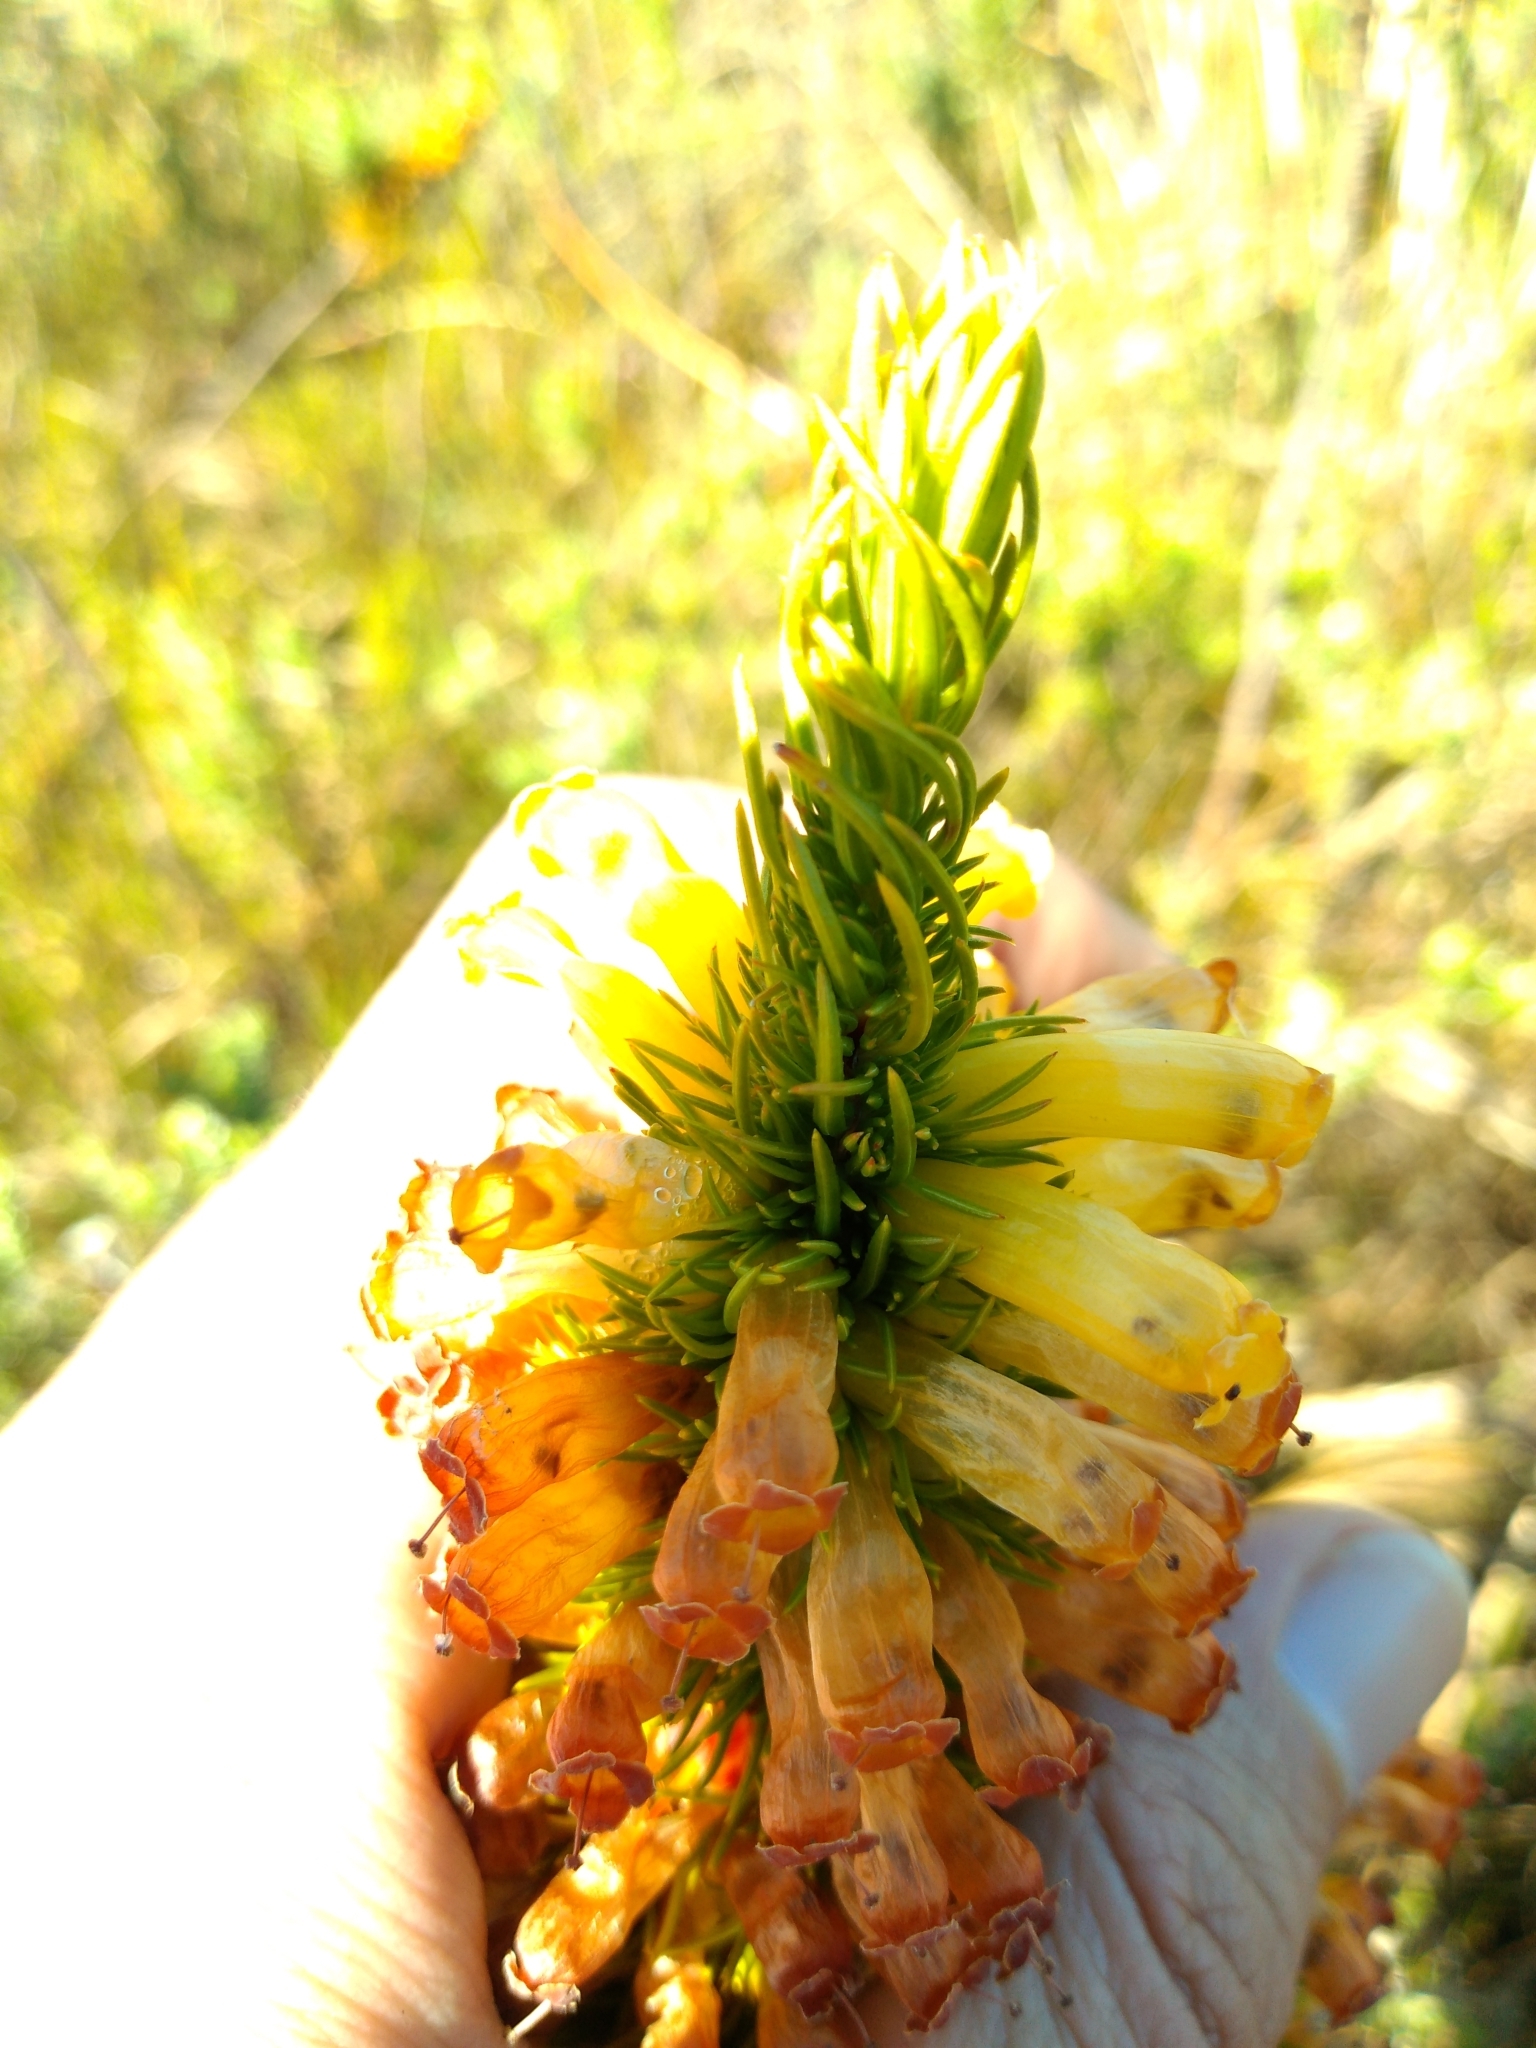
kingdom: Plantae
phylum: Tracheophyta
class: Magnoliopsida
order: Ericales
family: Ericaceae
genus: Erica
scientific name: Erica patersonia
